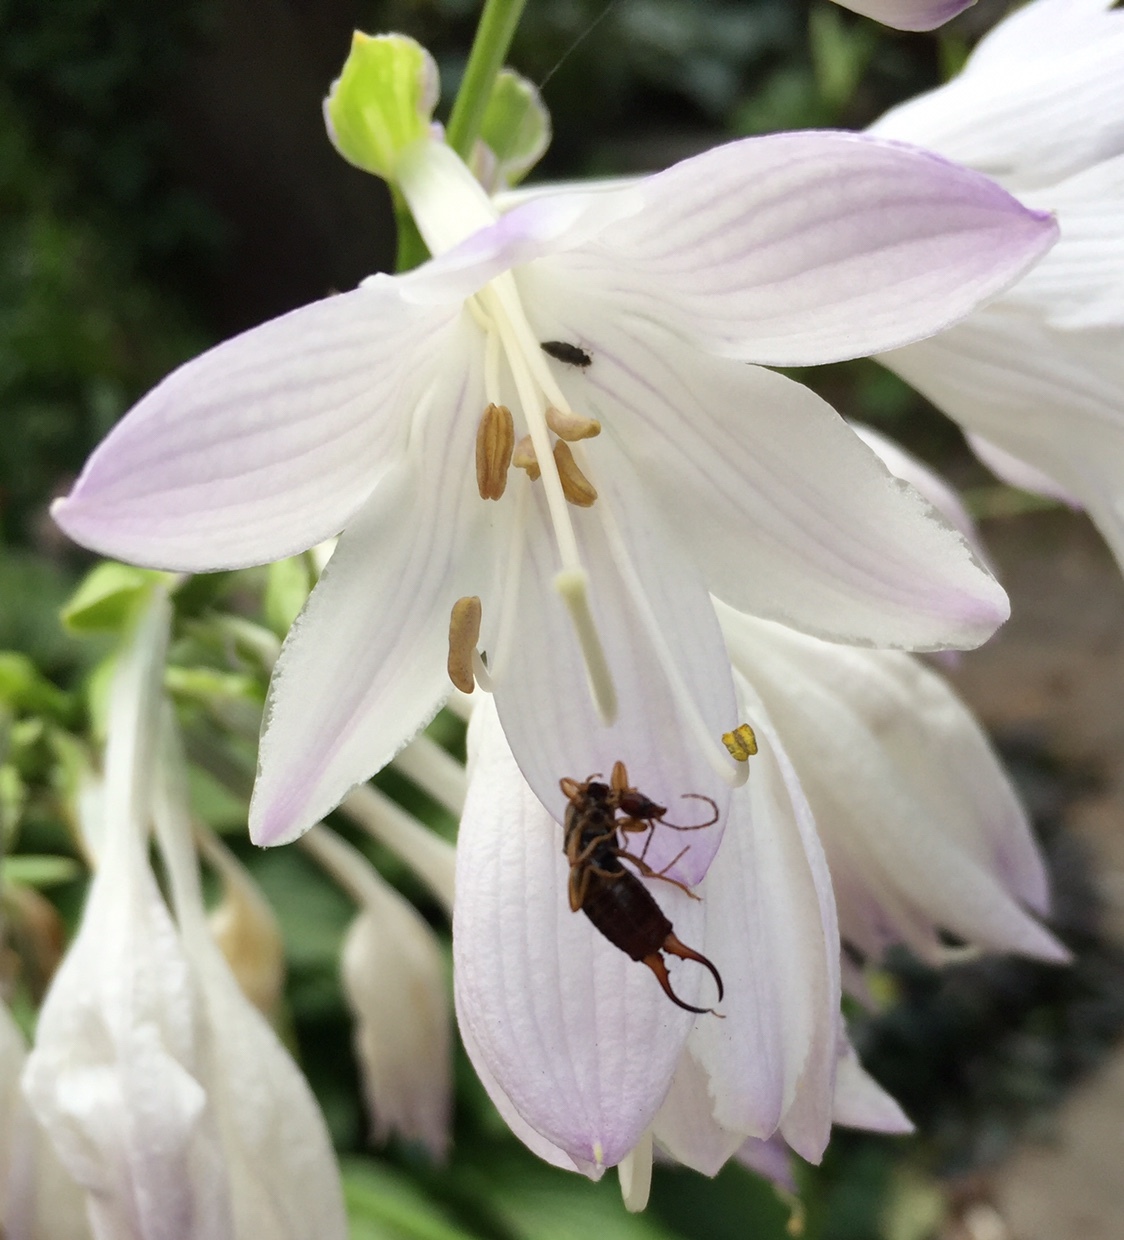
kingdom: Animalia
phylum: Arthropoda
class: Insecta
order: Dermaptera
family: Forficulidae
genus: Forficula
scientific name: Forficula
